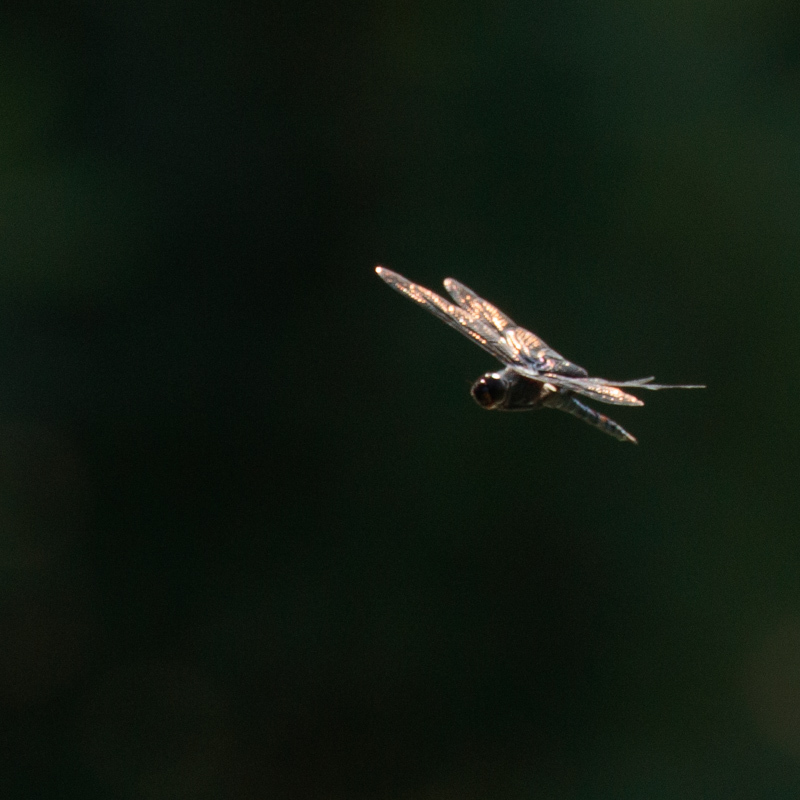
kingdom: Animalia
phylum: Arthropoda
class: Insecta
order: Odonata
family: Libellulidae
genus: Tramea
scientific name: Tramea lacerata
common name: Black saddlebags
